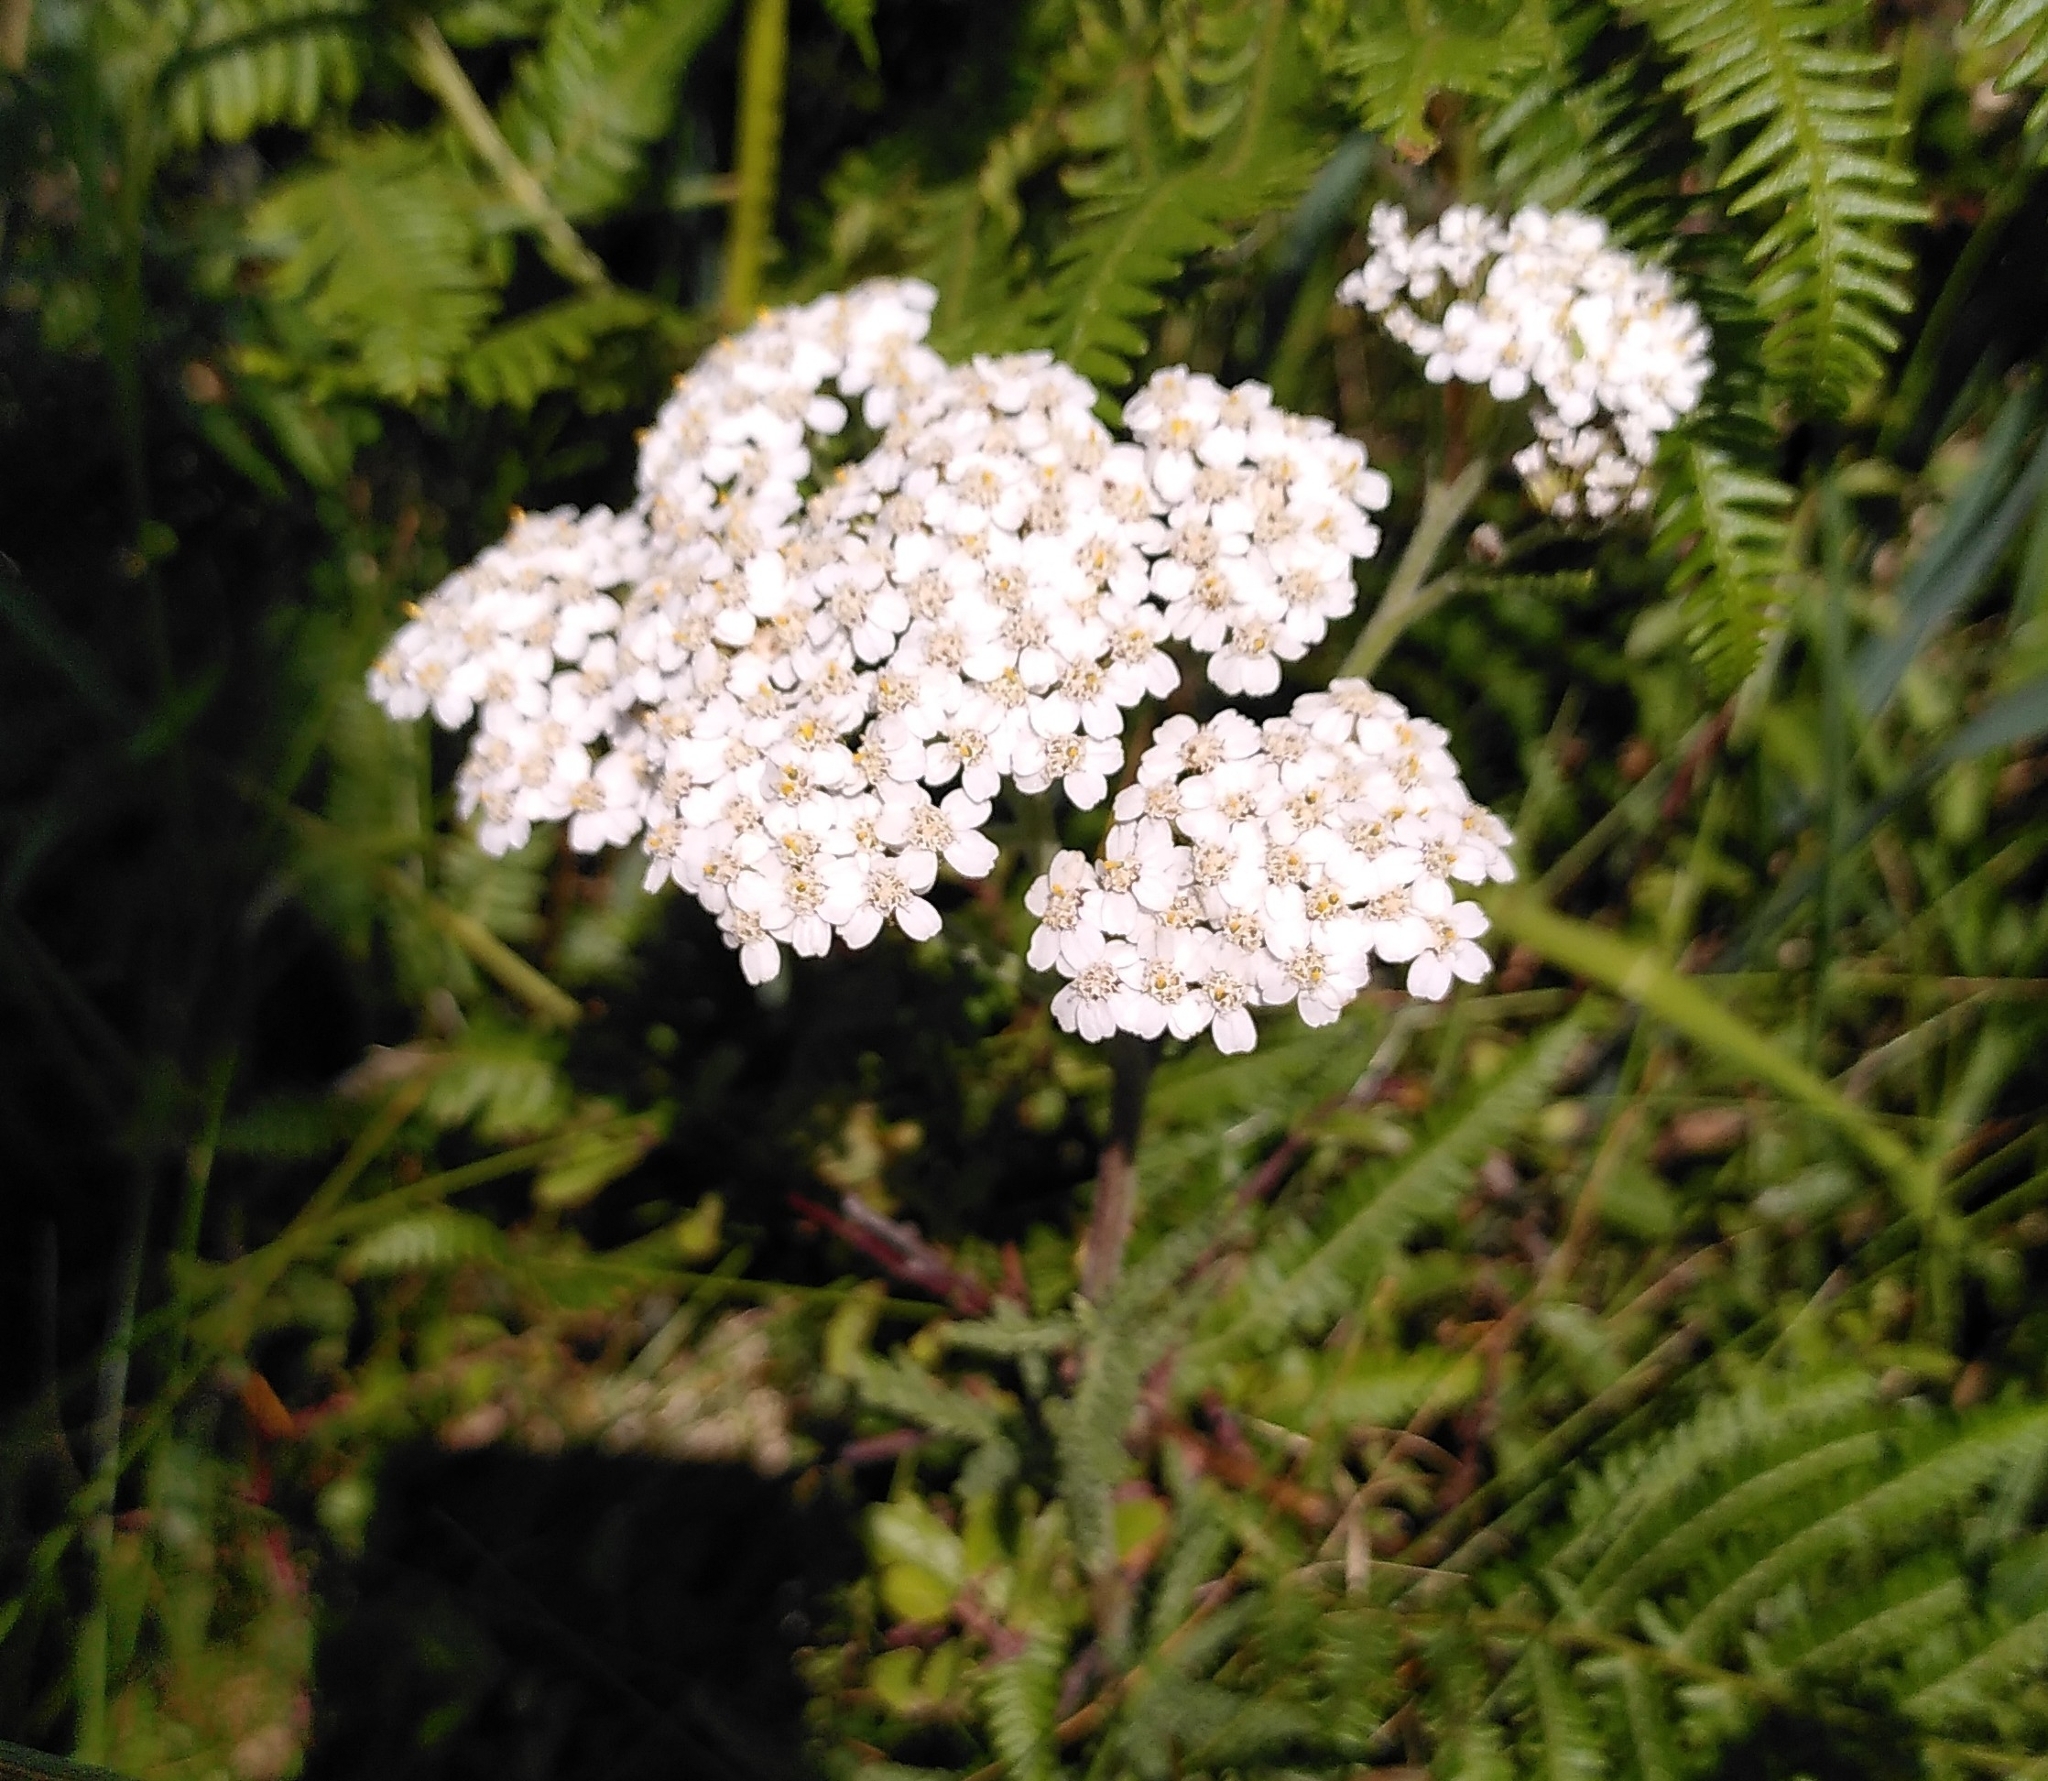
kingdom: Plantae
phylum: Tracheophyta
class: Magnoliopsida
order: Asterales
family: Asteraceae
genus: Achillea
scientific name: Achillea millefolium
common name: Yarrow
